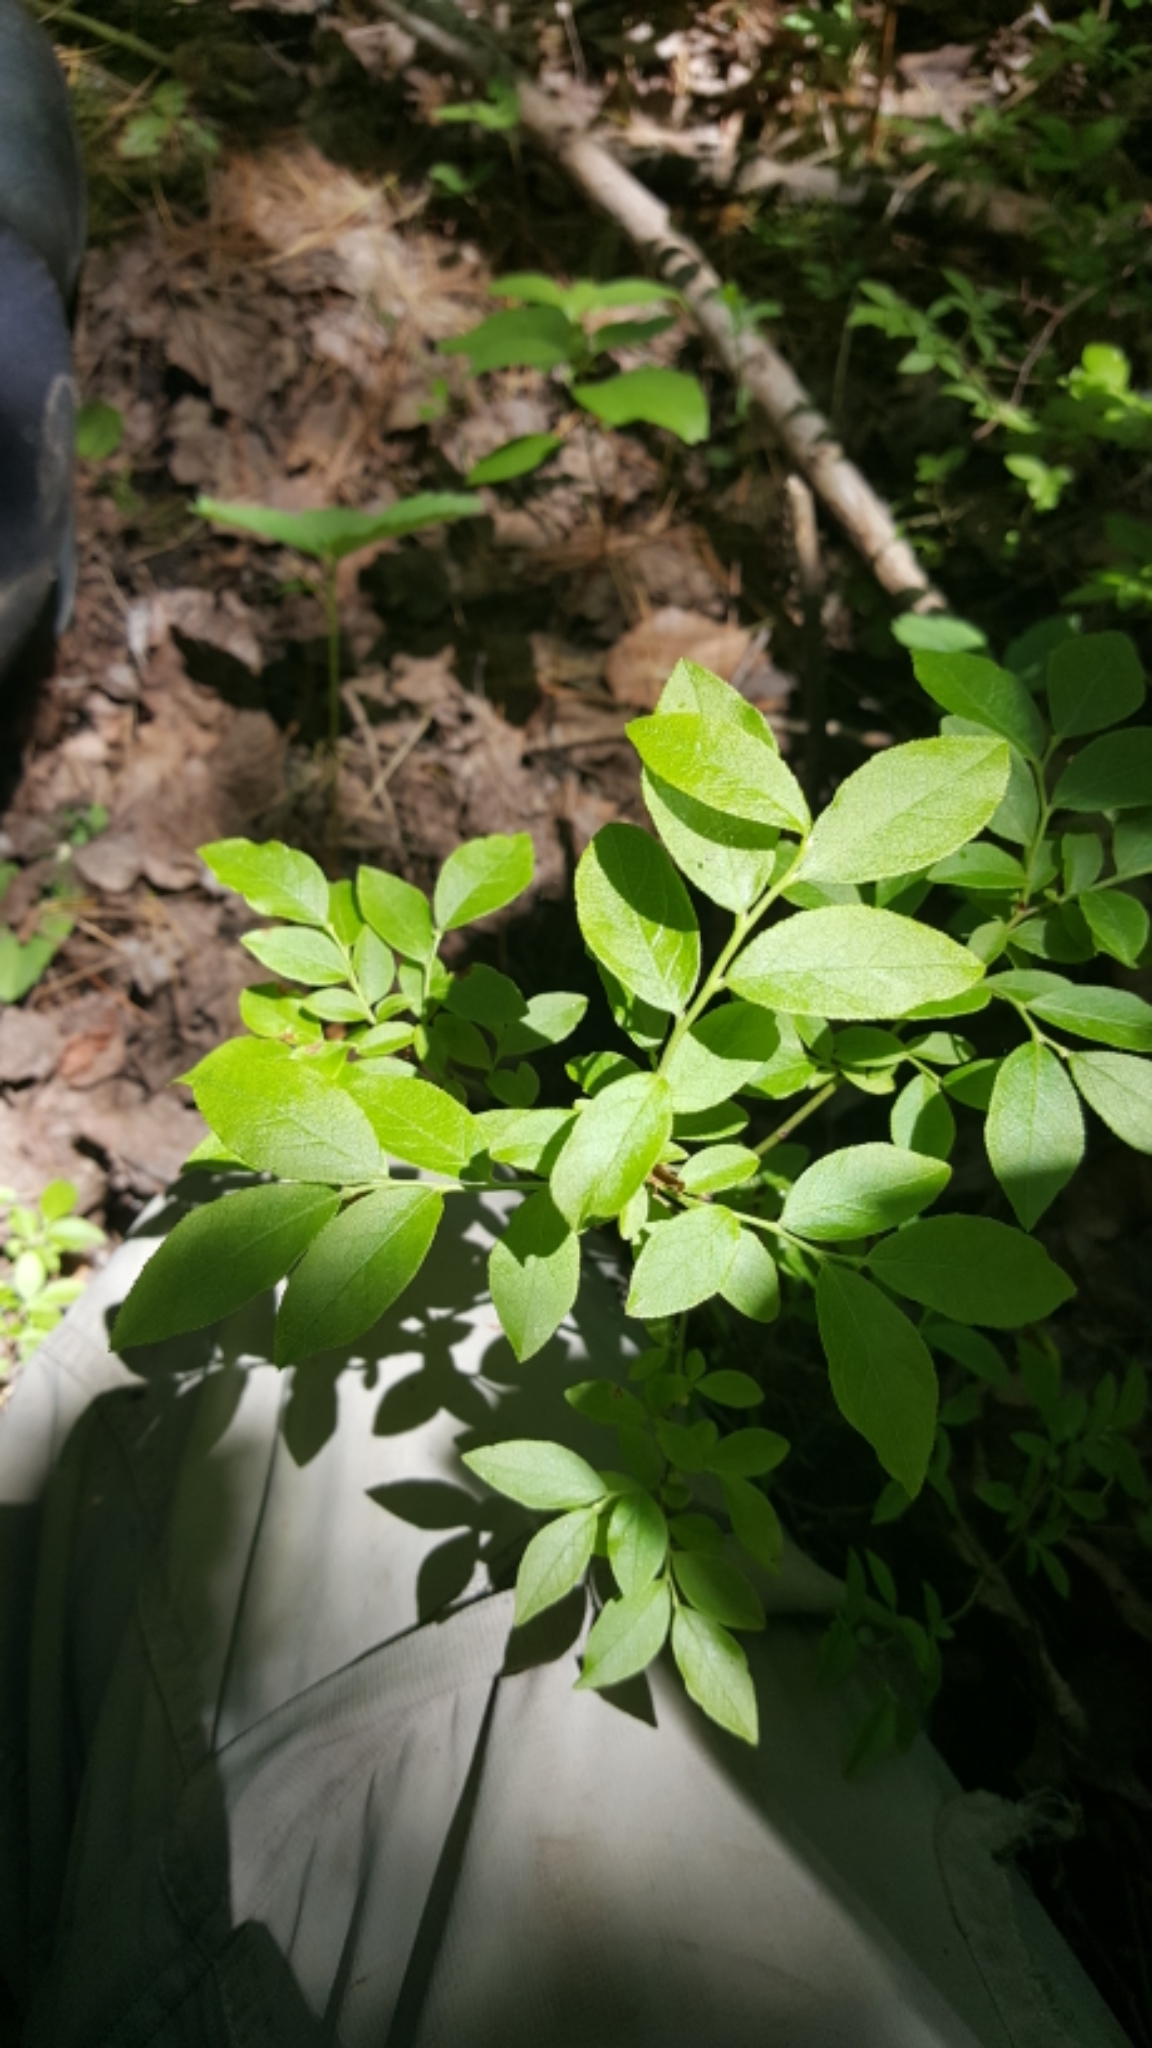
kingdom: Plantae
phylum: Tracheophyta
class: Magnoliopsida
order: Ericales
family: Ericaceae
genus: Vaccinium
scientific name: Vaccinium angustifolium
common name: Early lowbush blueberry
